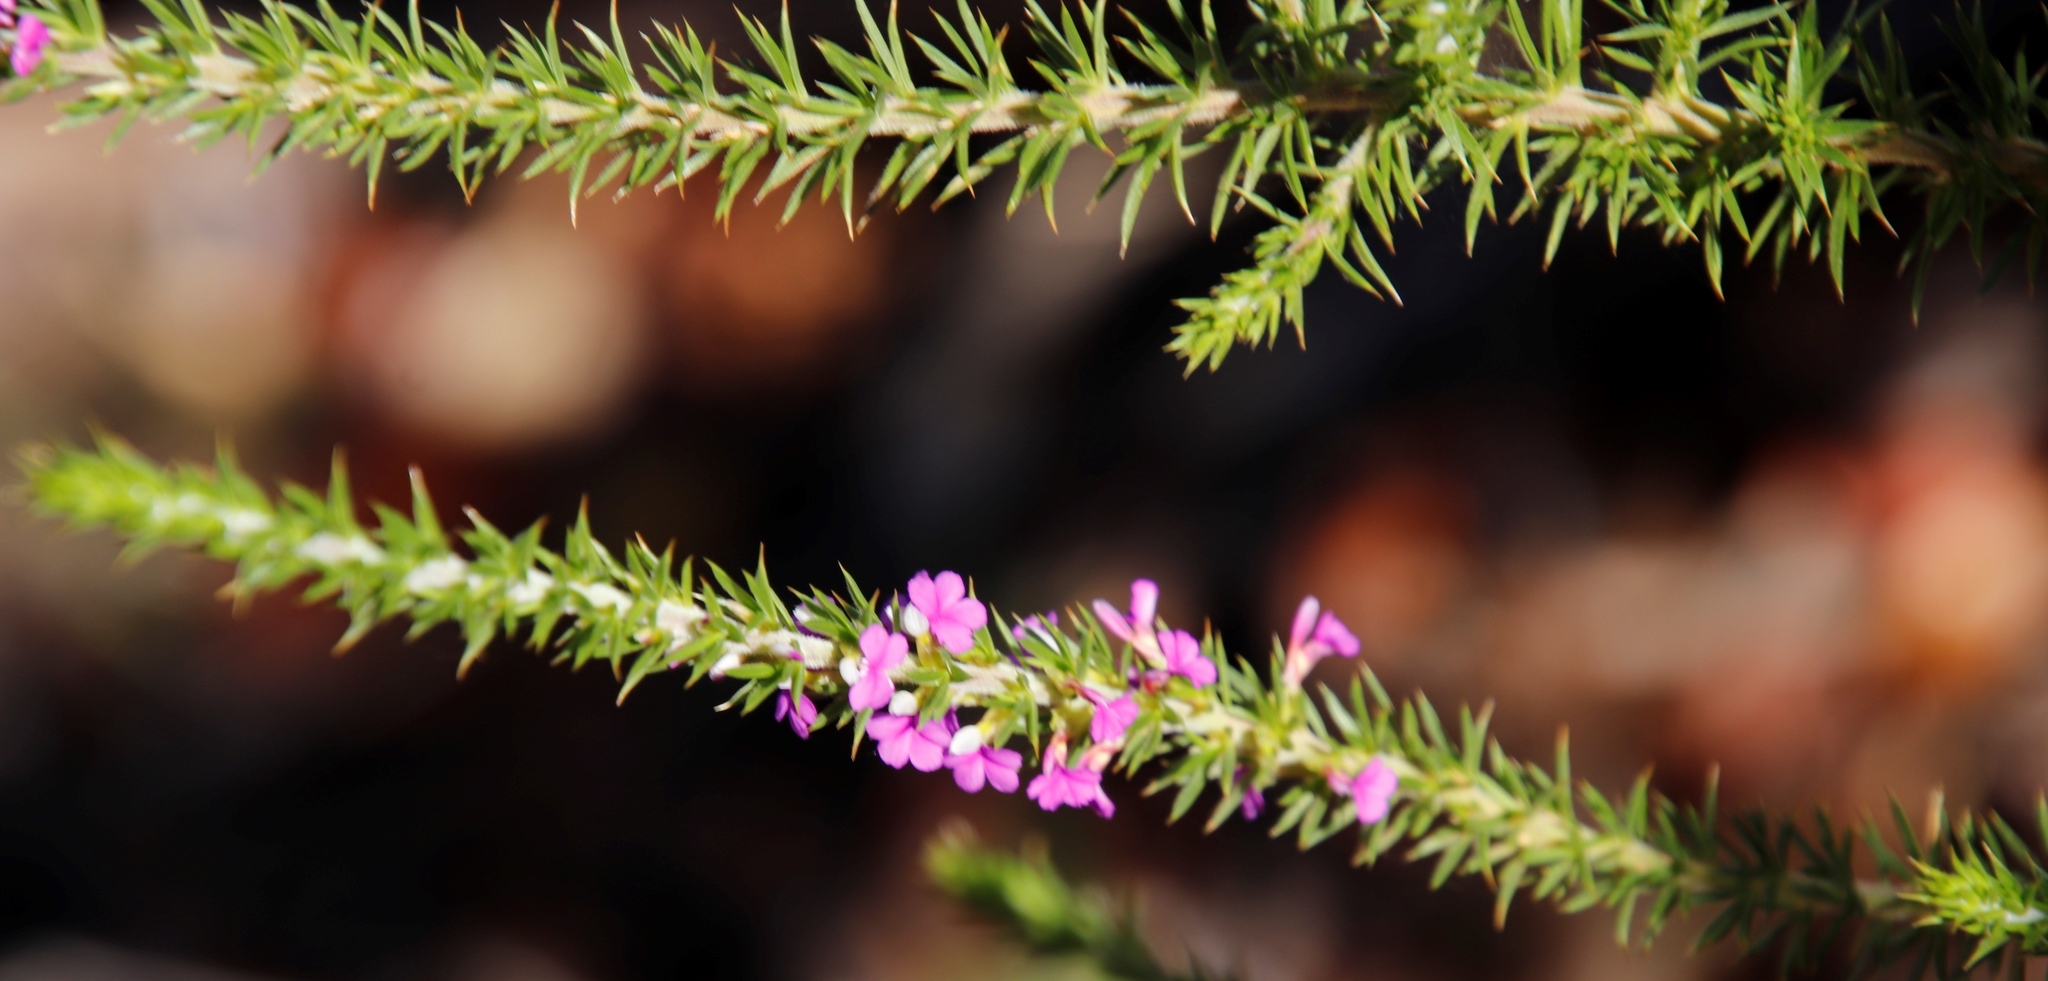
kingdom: Plantae
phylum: Tracheophyta
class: Magnoliopsida
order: Fabales
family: Polygalaceae
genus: Muraltia
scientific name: Muraltia heisteria
